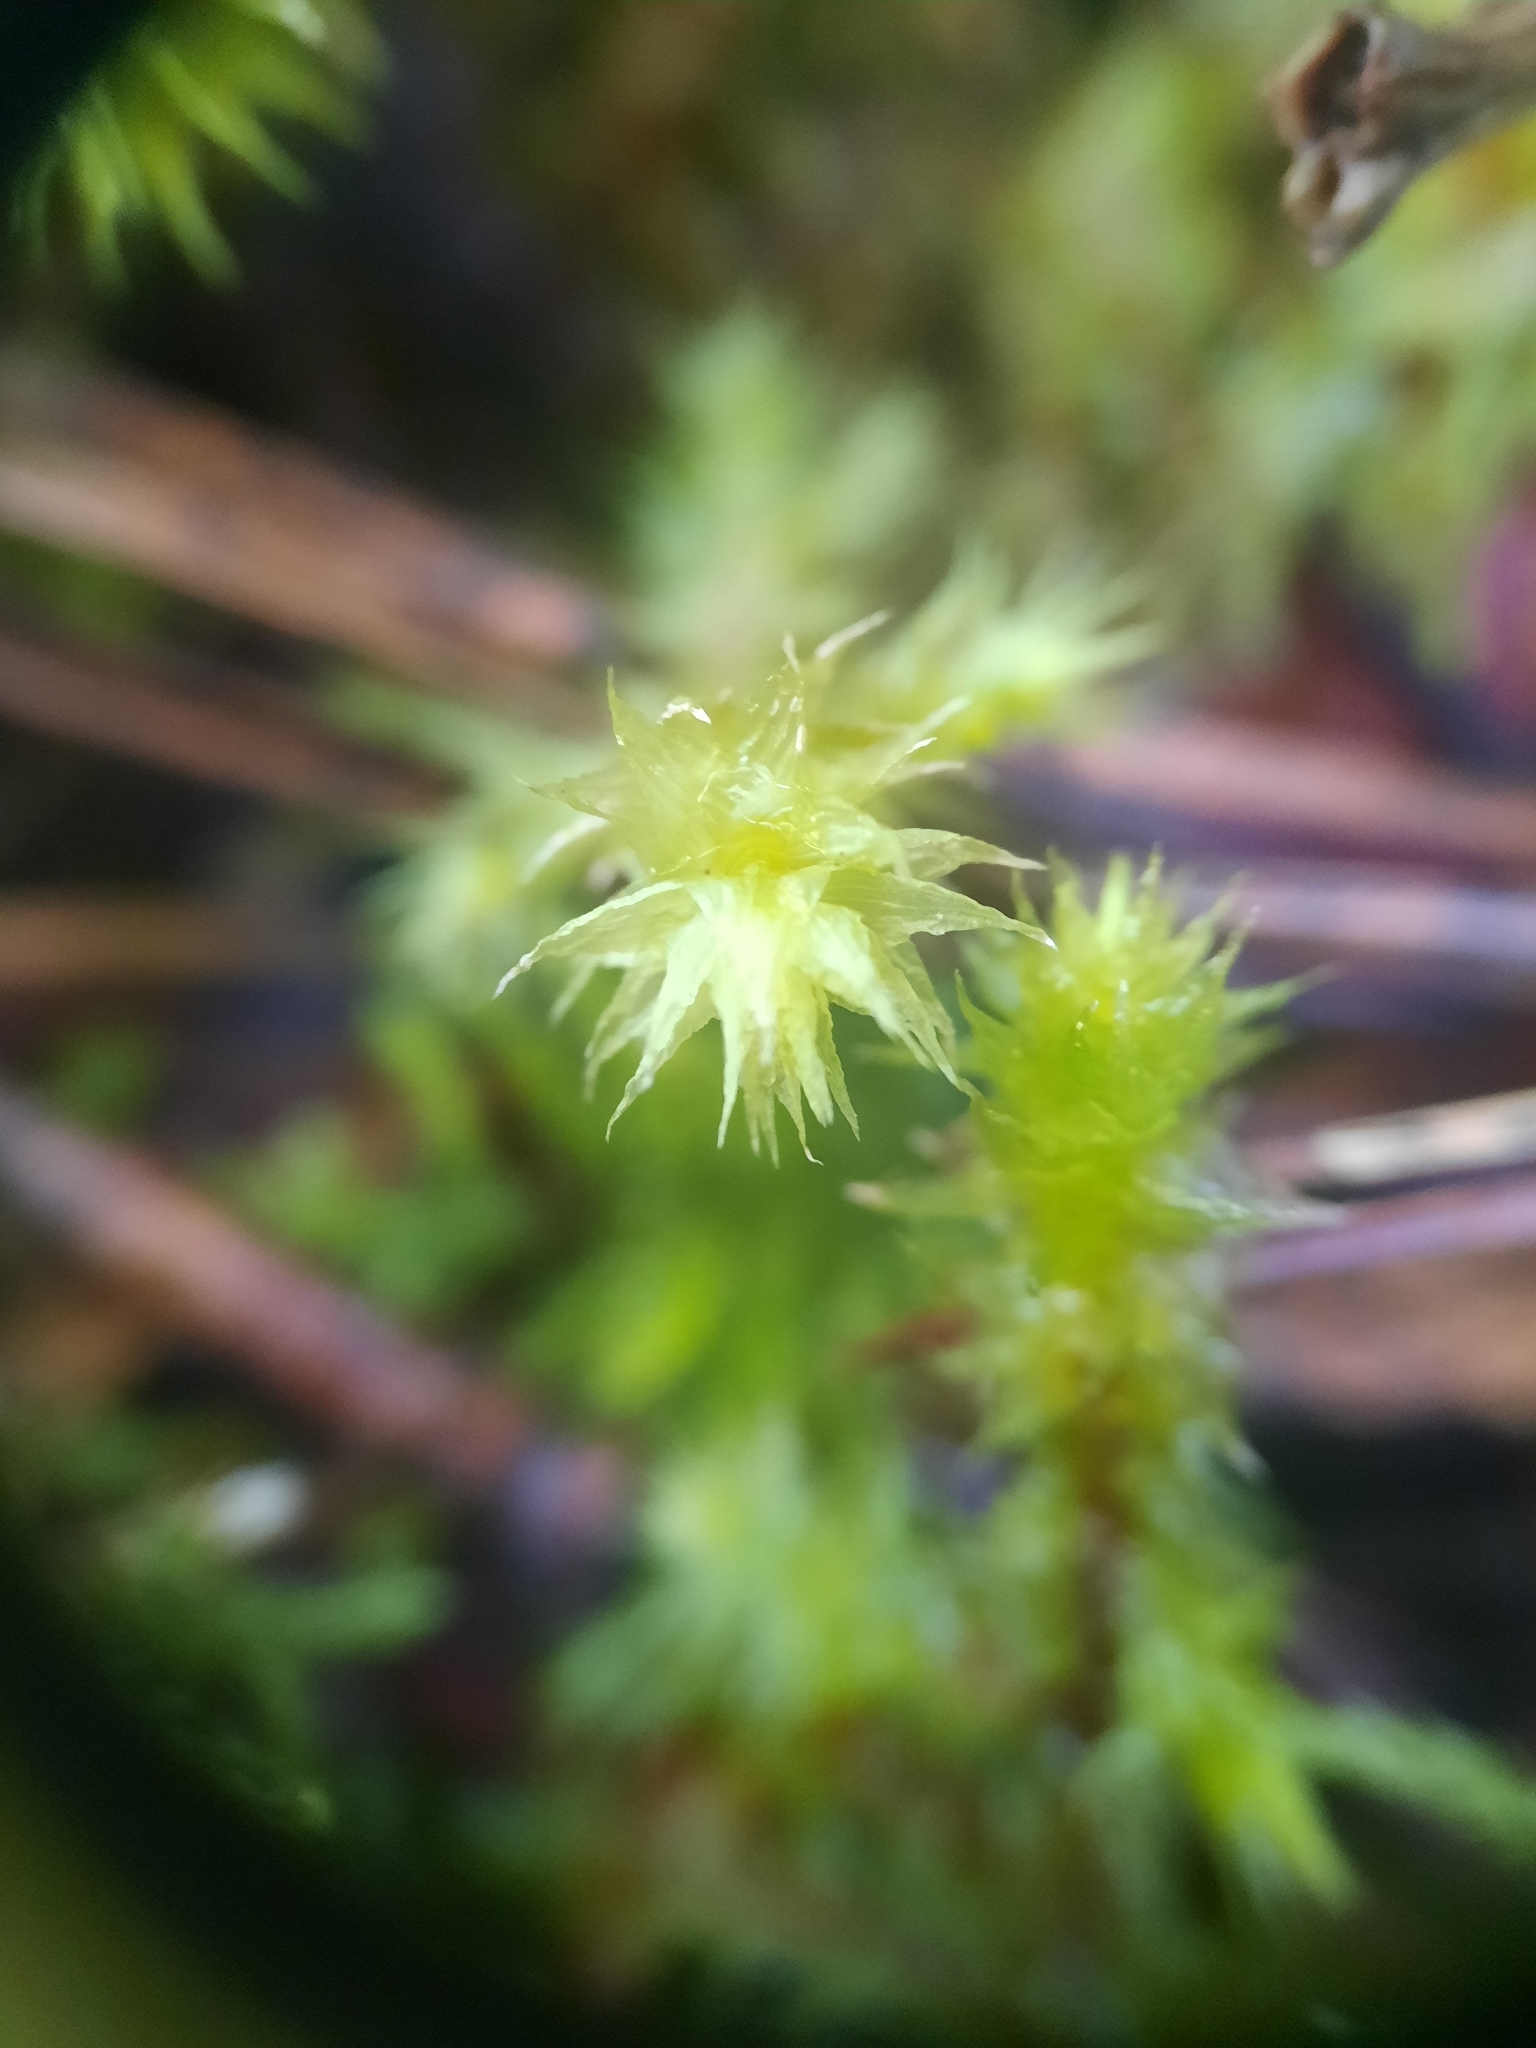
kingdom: Plantae
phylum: Bryophyta
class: Bryopsida
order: Hypnales
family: Hylocomiaceae
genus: Hylocomiadelphus
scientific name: Hylocomiadelphus triquetrus
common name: Rough goose neck moss
